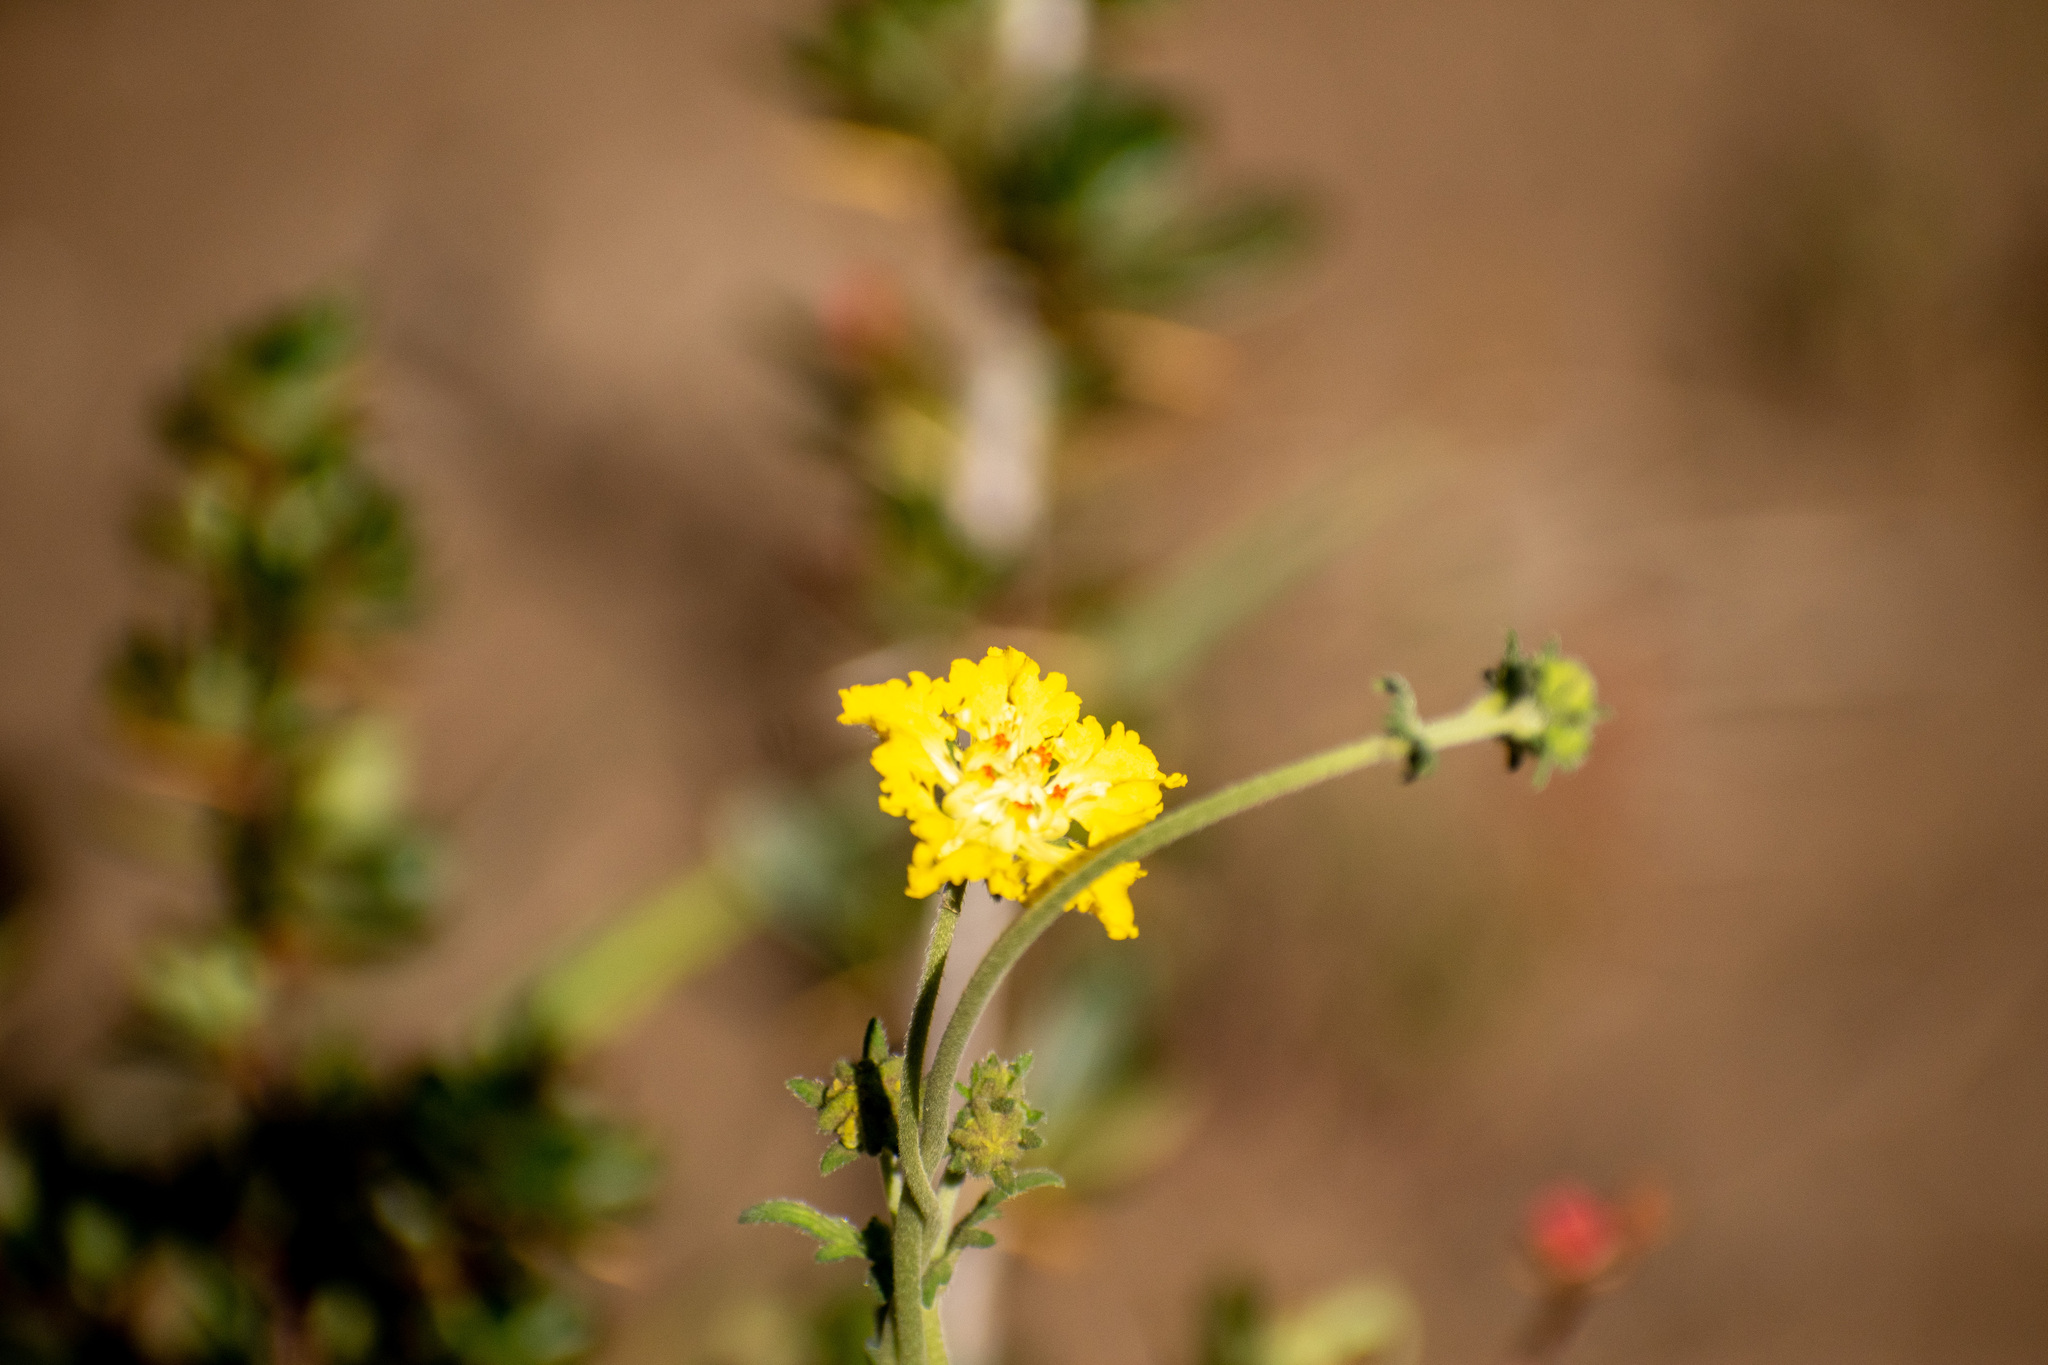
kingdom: Plantae
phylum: Tracheophyta
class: Magnoliopsida
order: Cornales
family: Loasaceae
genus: Pinnasa
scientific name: Pinnasa bergii
